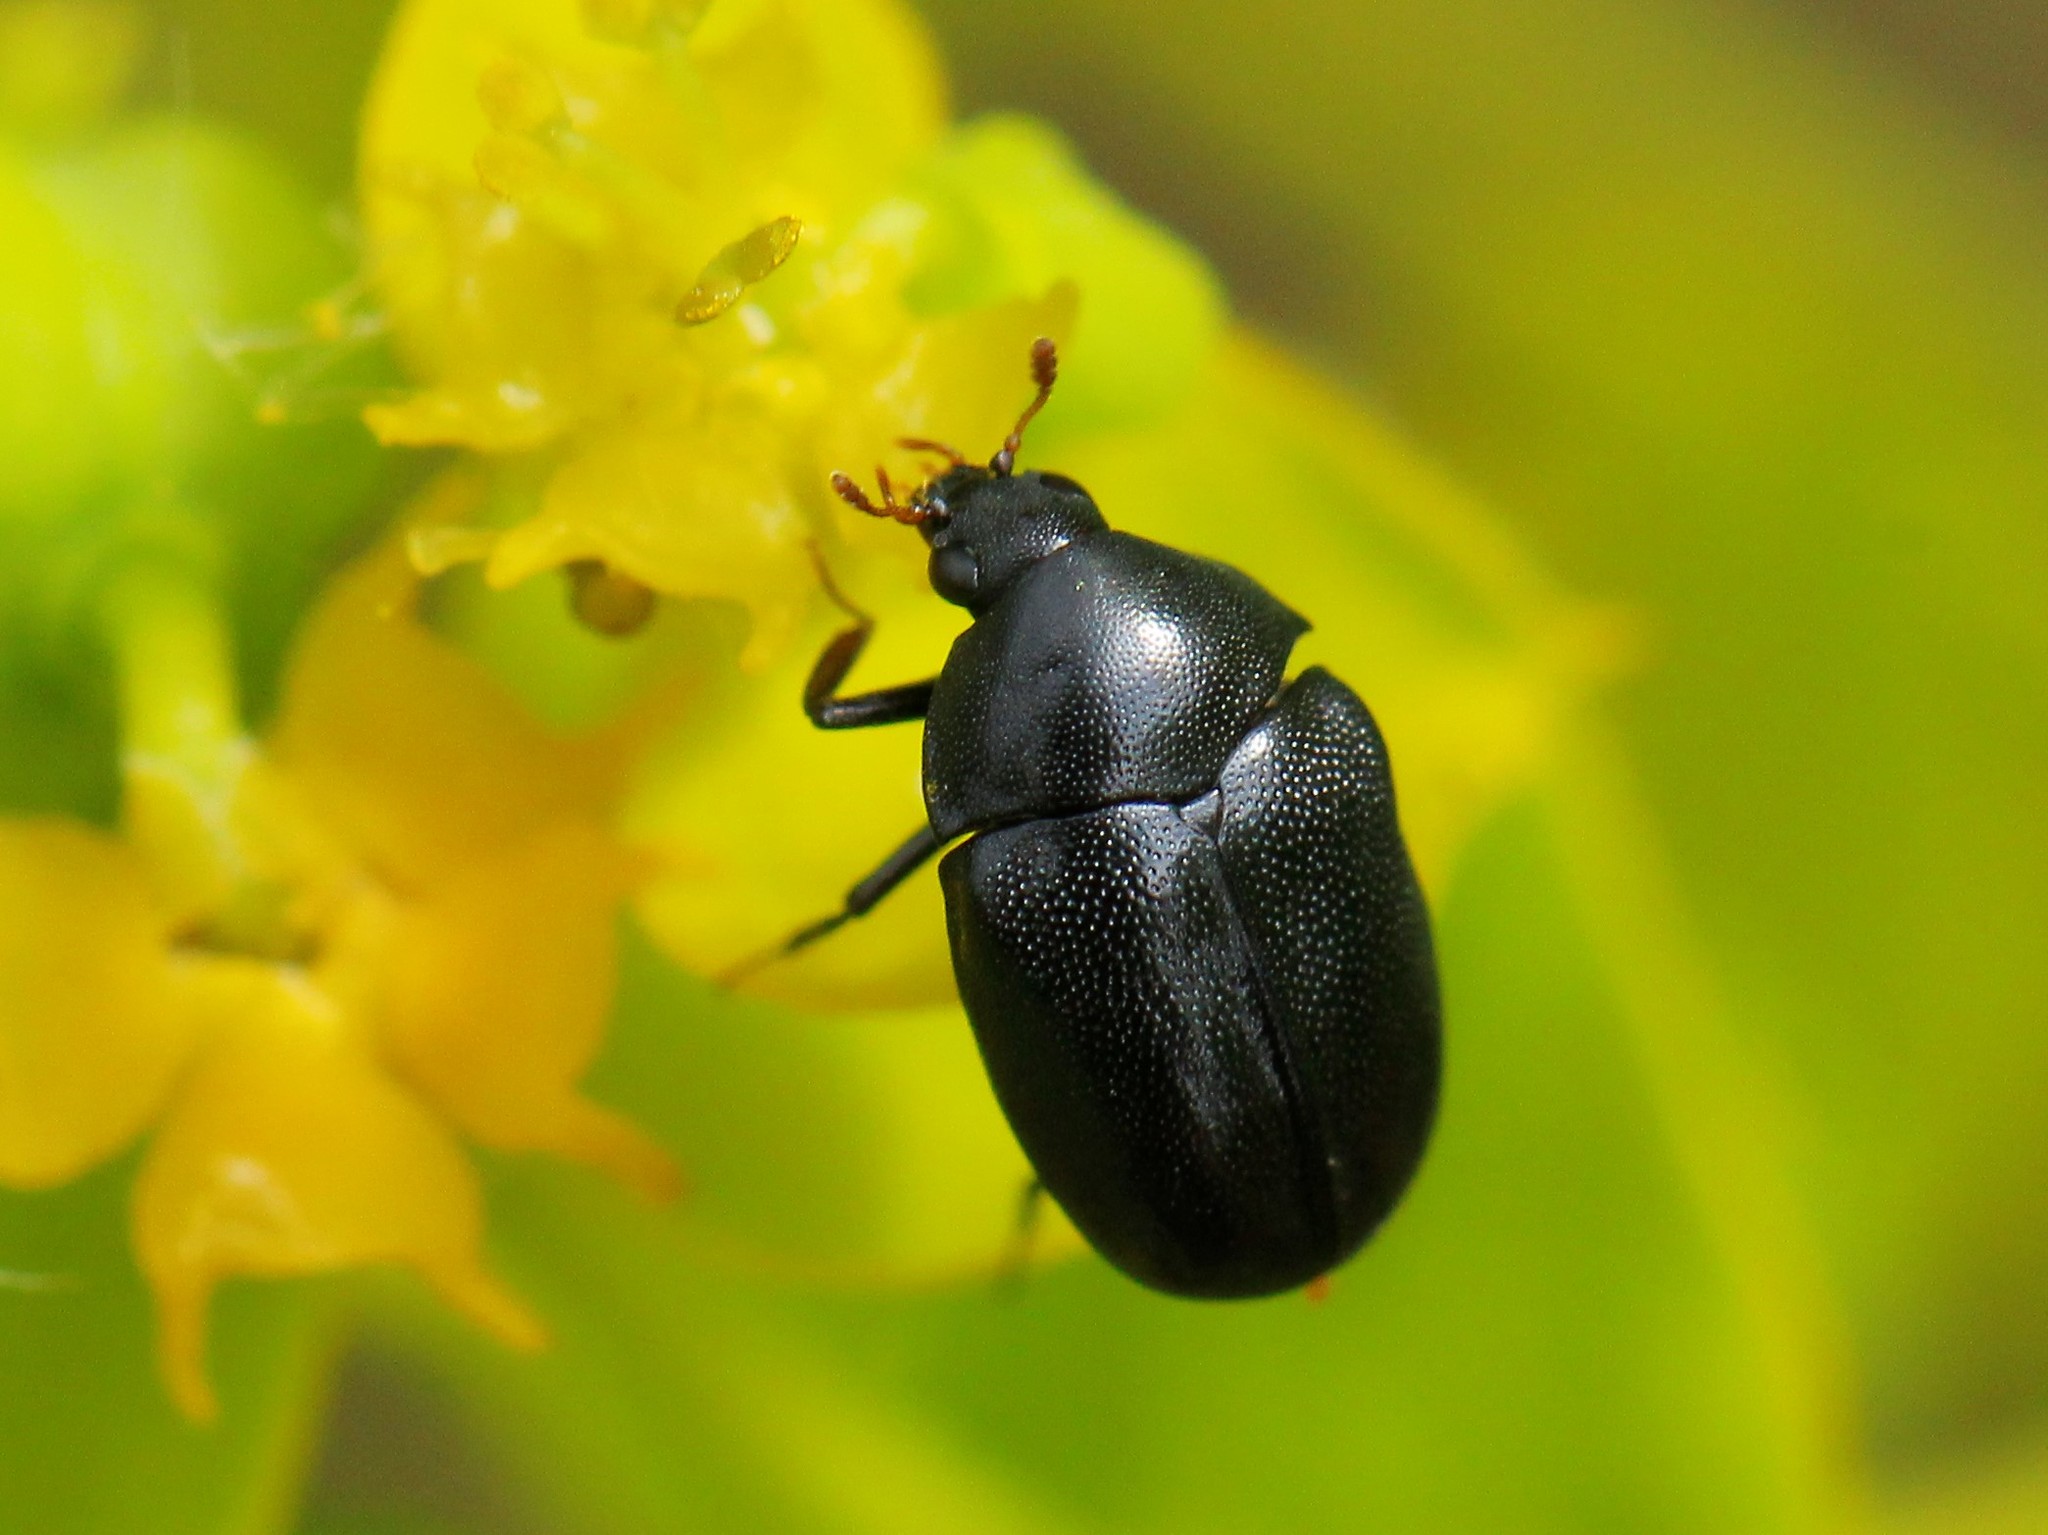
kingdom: Animalia
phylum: Arthropoda
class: Insecta
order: Coleoptera
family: Byrrhidae
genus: Byrrhus
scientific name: Byrrhus pustulatus
